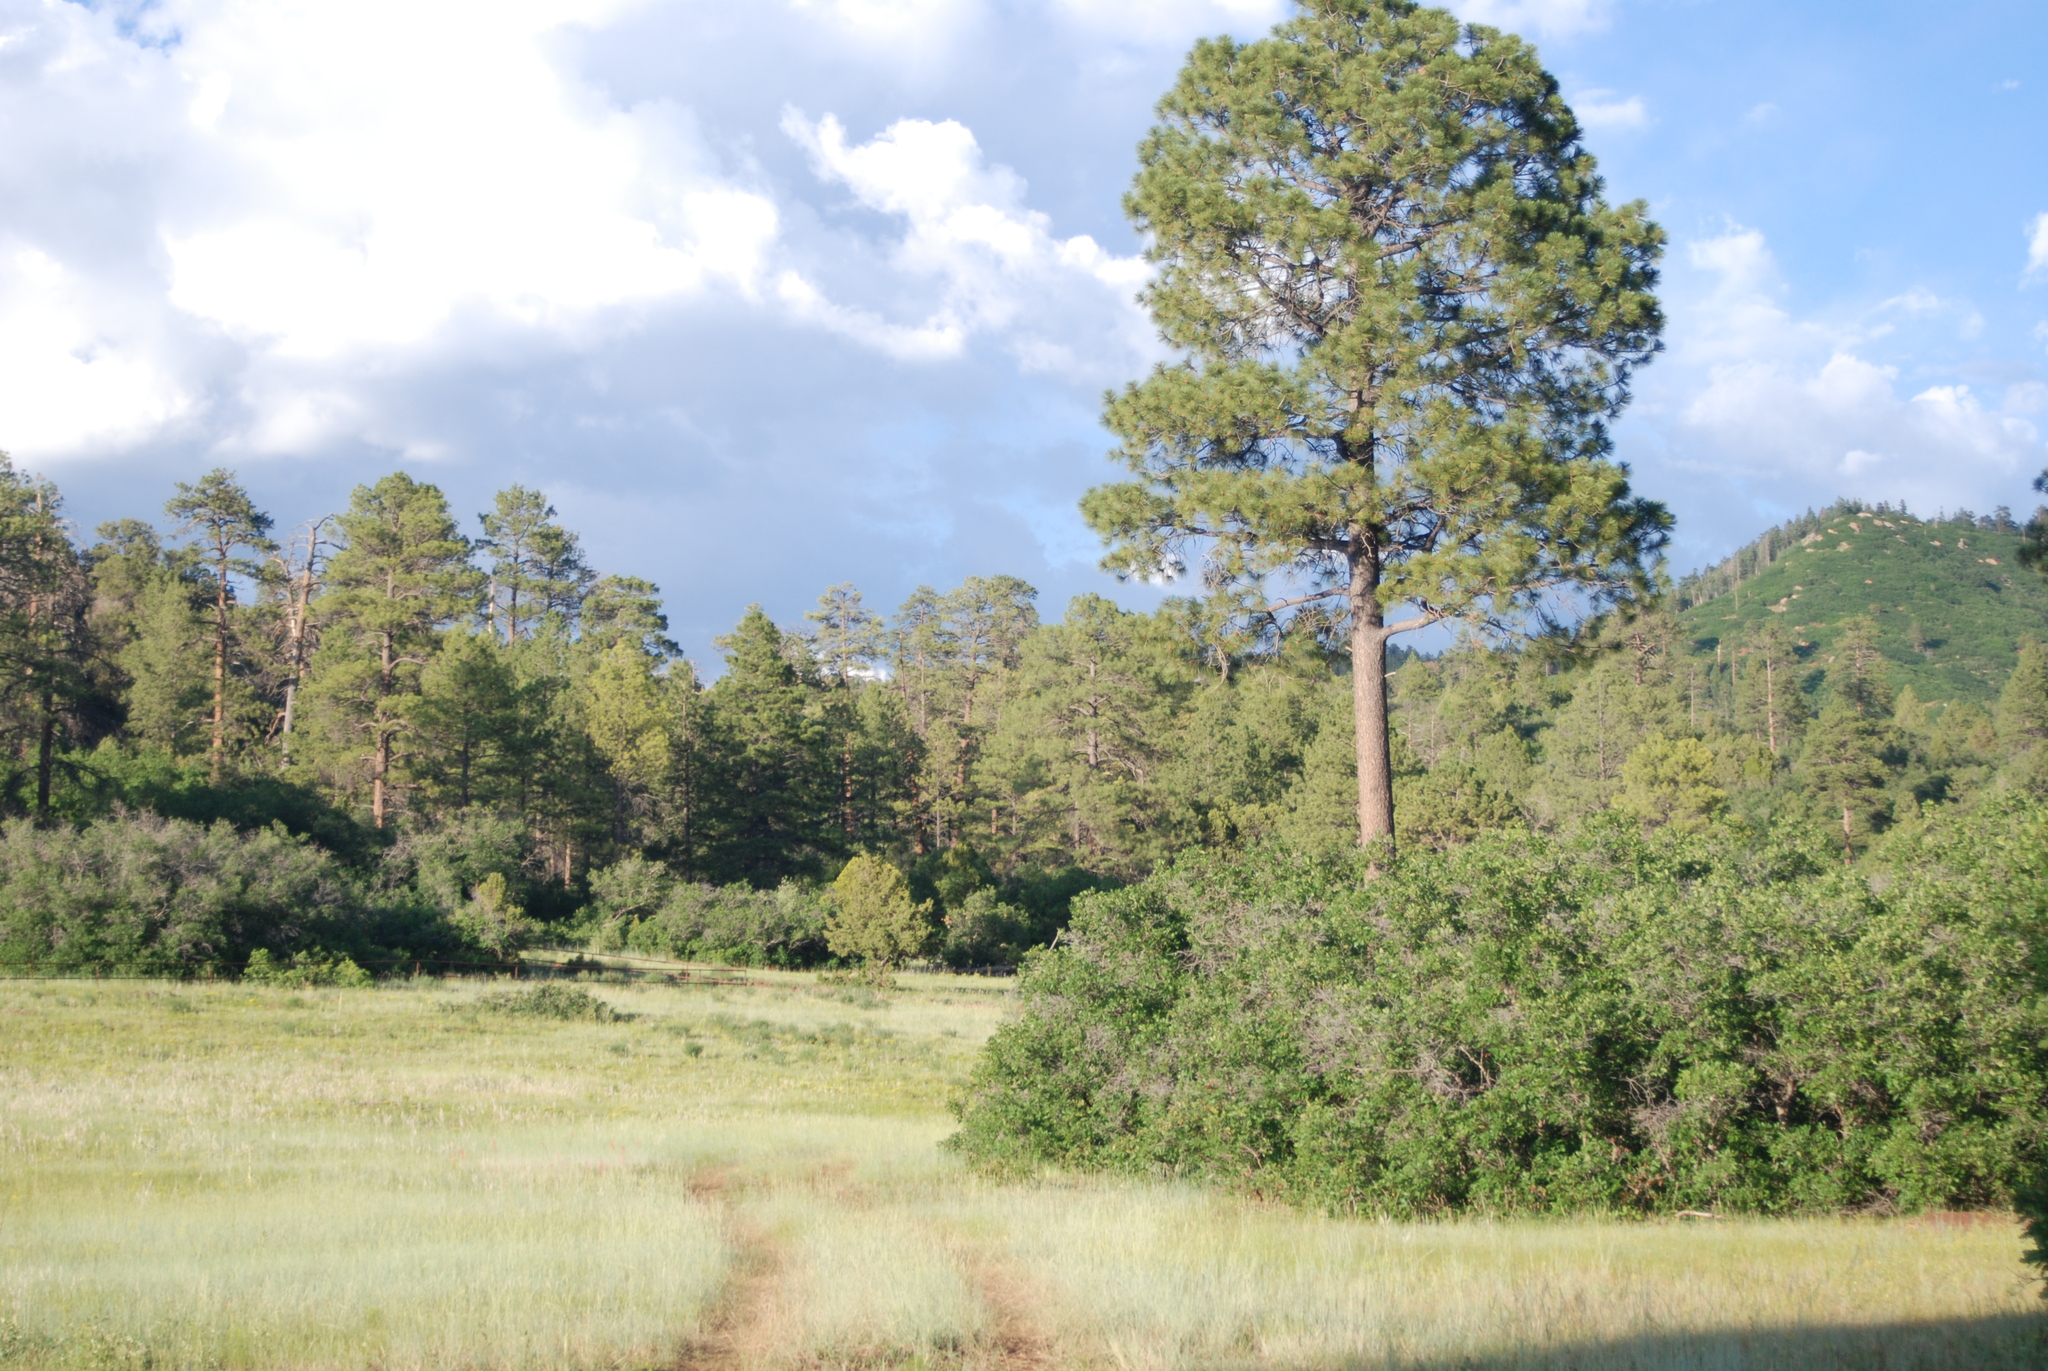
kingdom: Plantae
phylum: Tracheophyta
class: Pinopsida
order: Pinales
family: Pinaceae
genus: Pinus
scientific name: Pinus ponderosa
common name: Western yellow-pine
